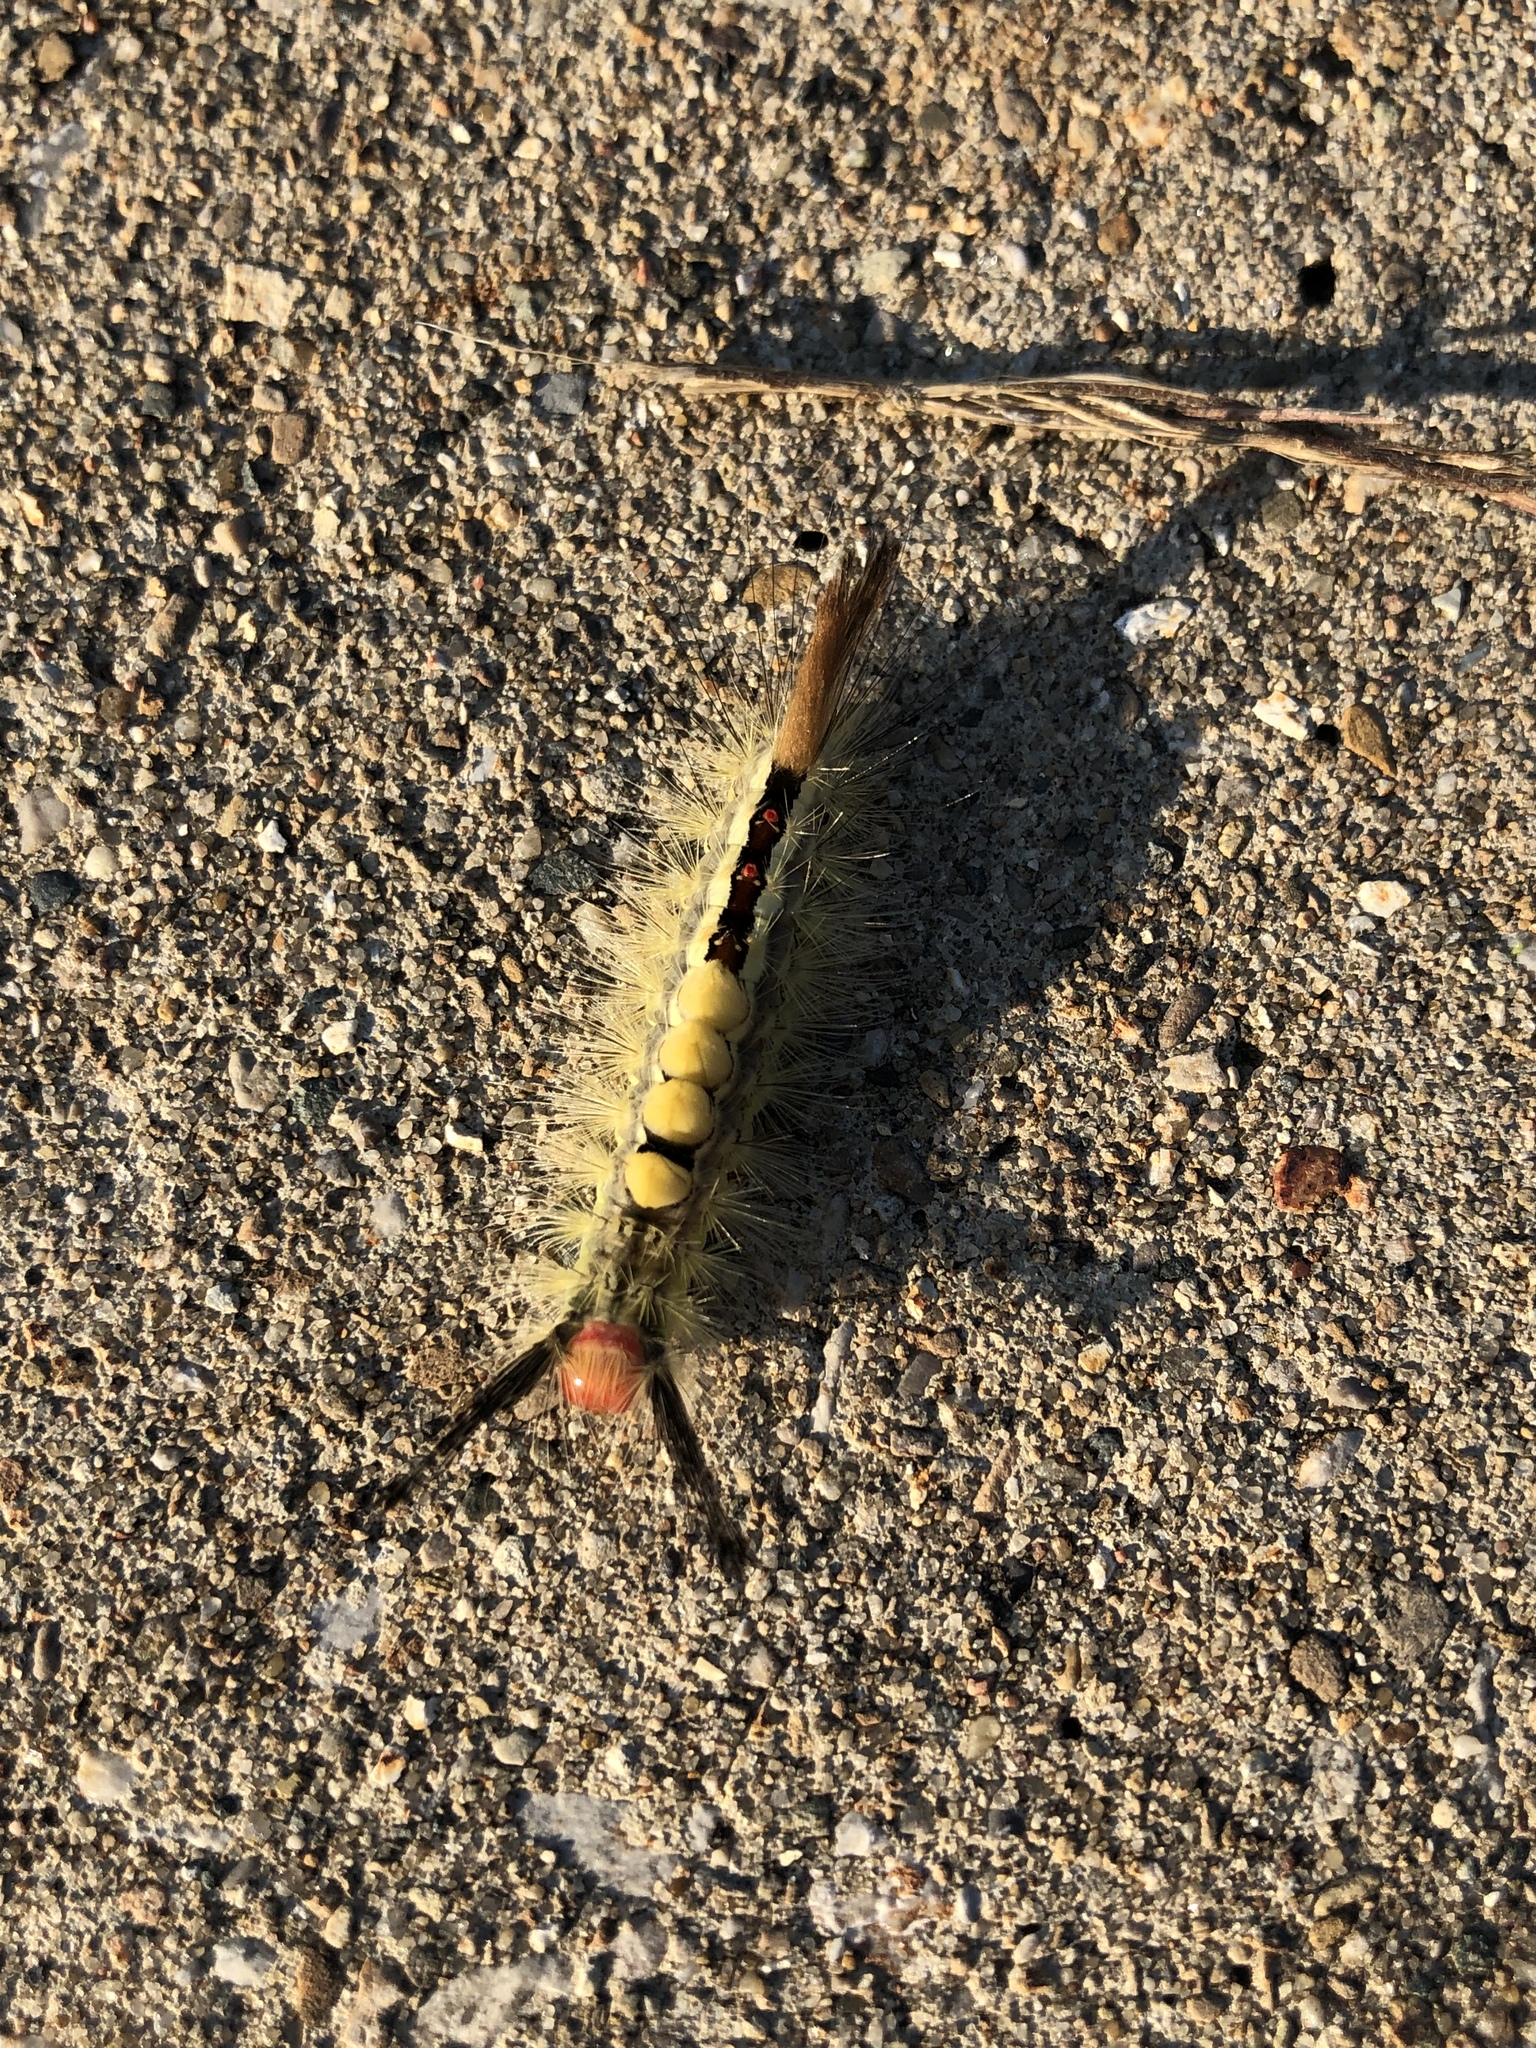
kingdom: Animalia
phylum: Arthropoda
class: Insecta
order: Lepidoptera
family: Erebidae
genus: Orgyia
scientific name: Orgyia leucostigma
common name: White-marked tussock moth
